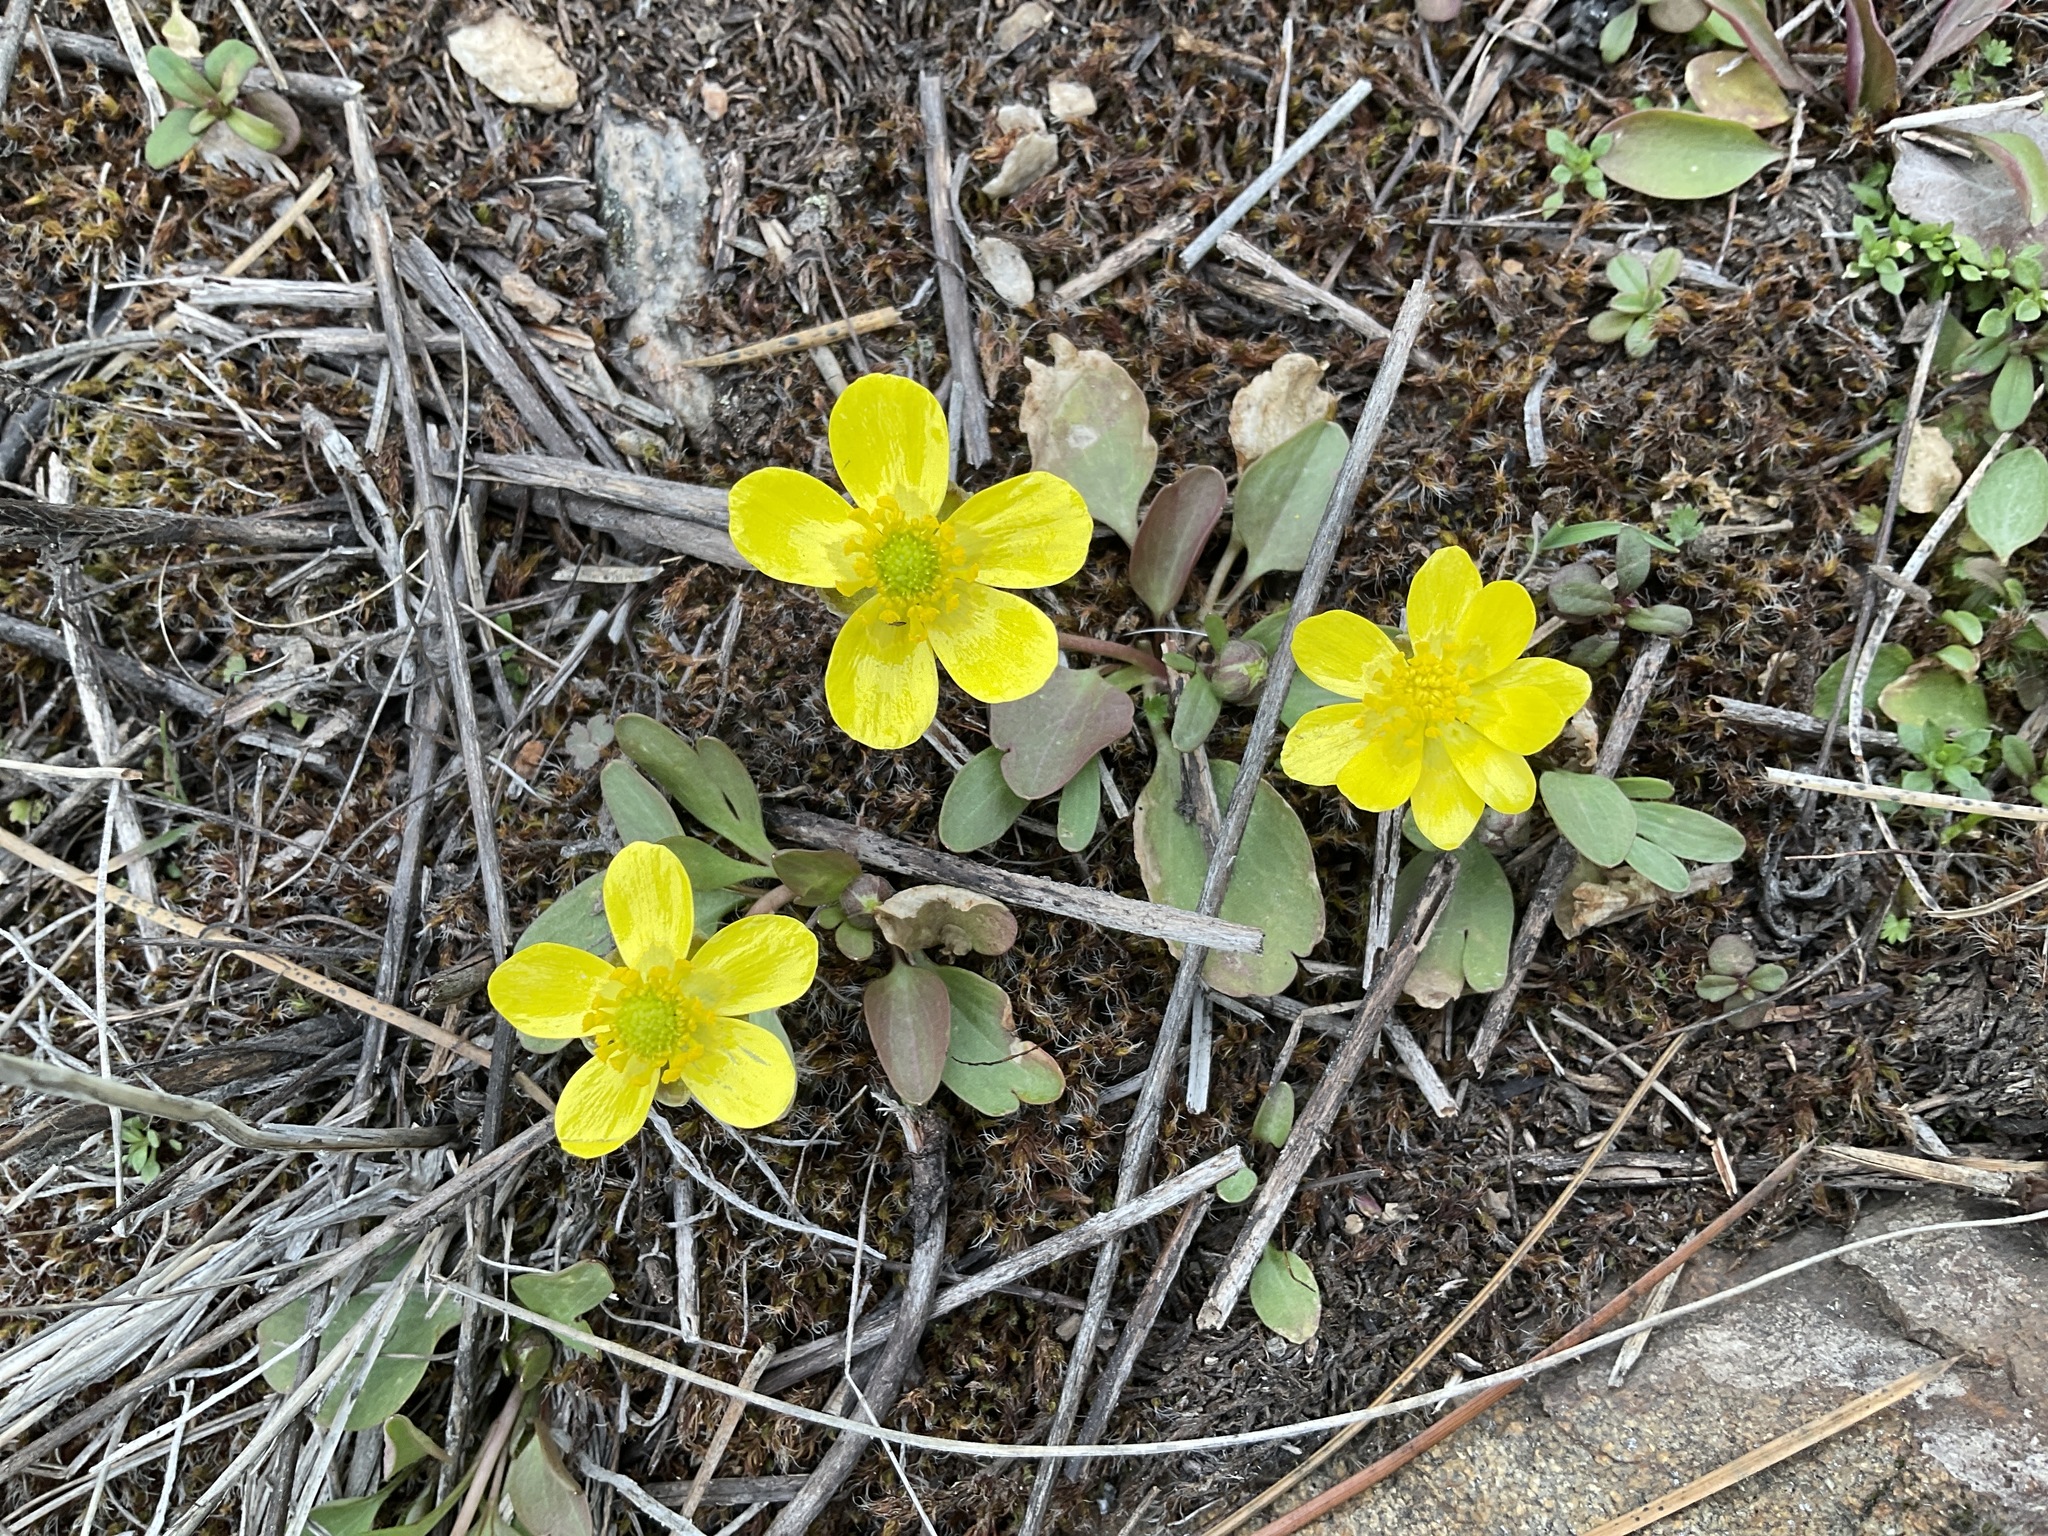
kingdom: Plantae
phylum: Tracheophyta
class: Magnoliopsida
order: Ranunculales
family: Ranunculaceae
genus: Ranunculus
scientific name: Ranunculus glaberrimus
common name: Sagebrush buttercup
